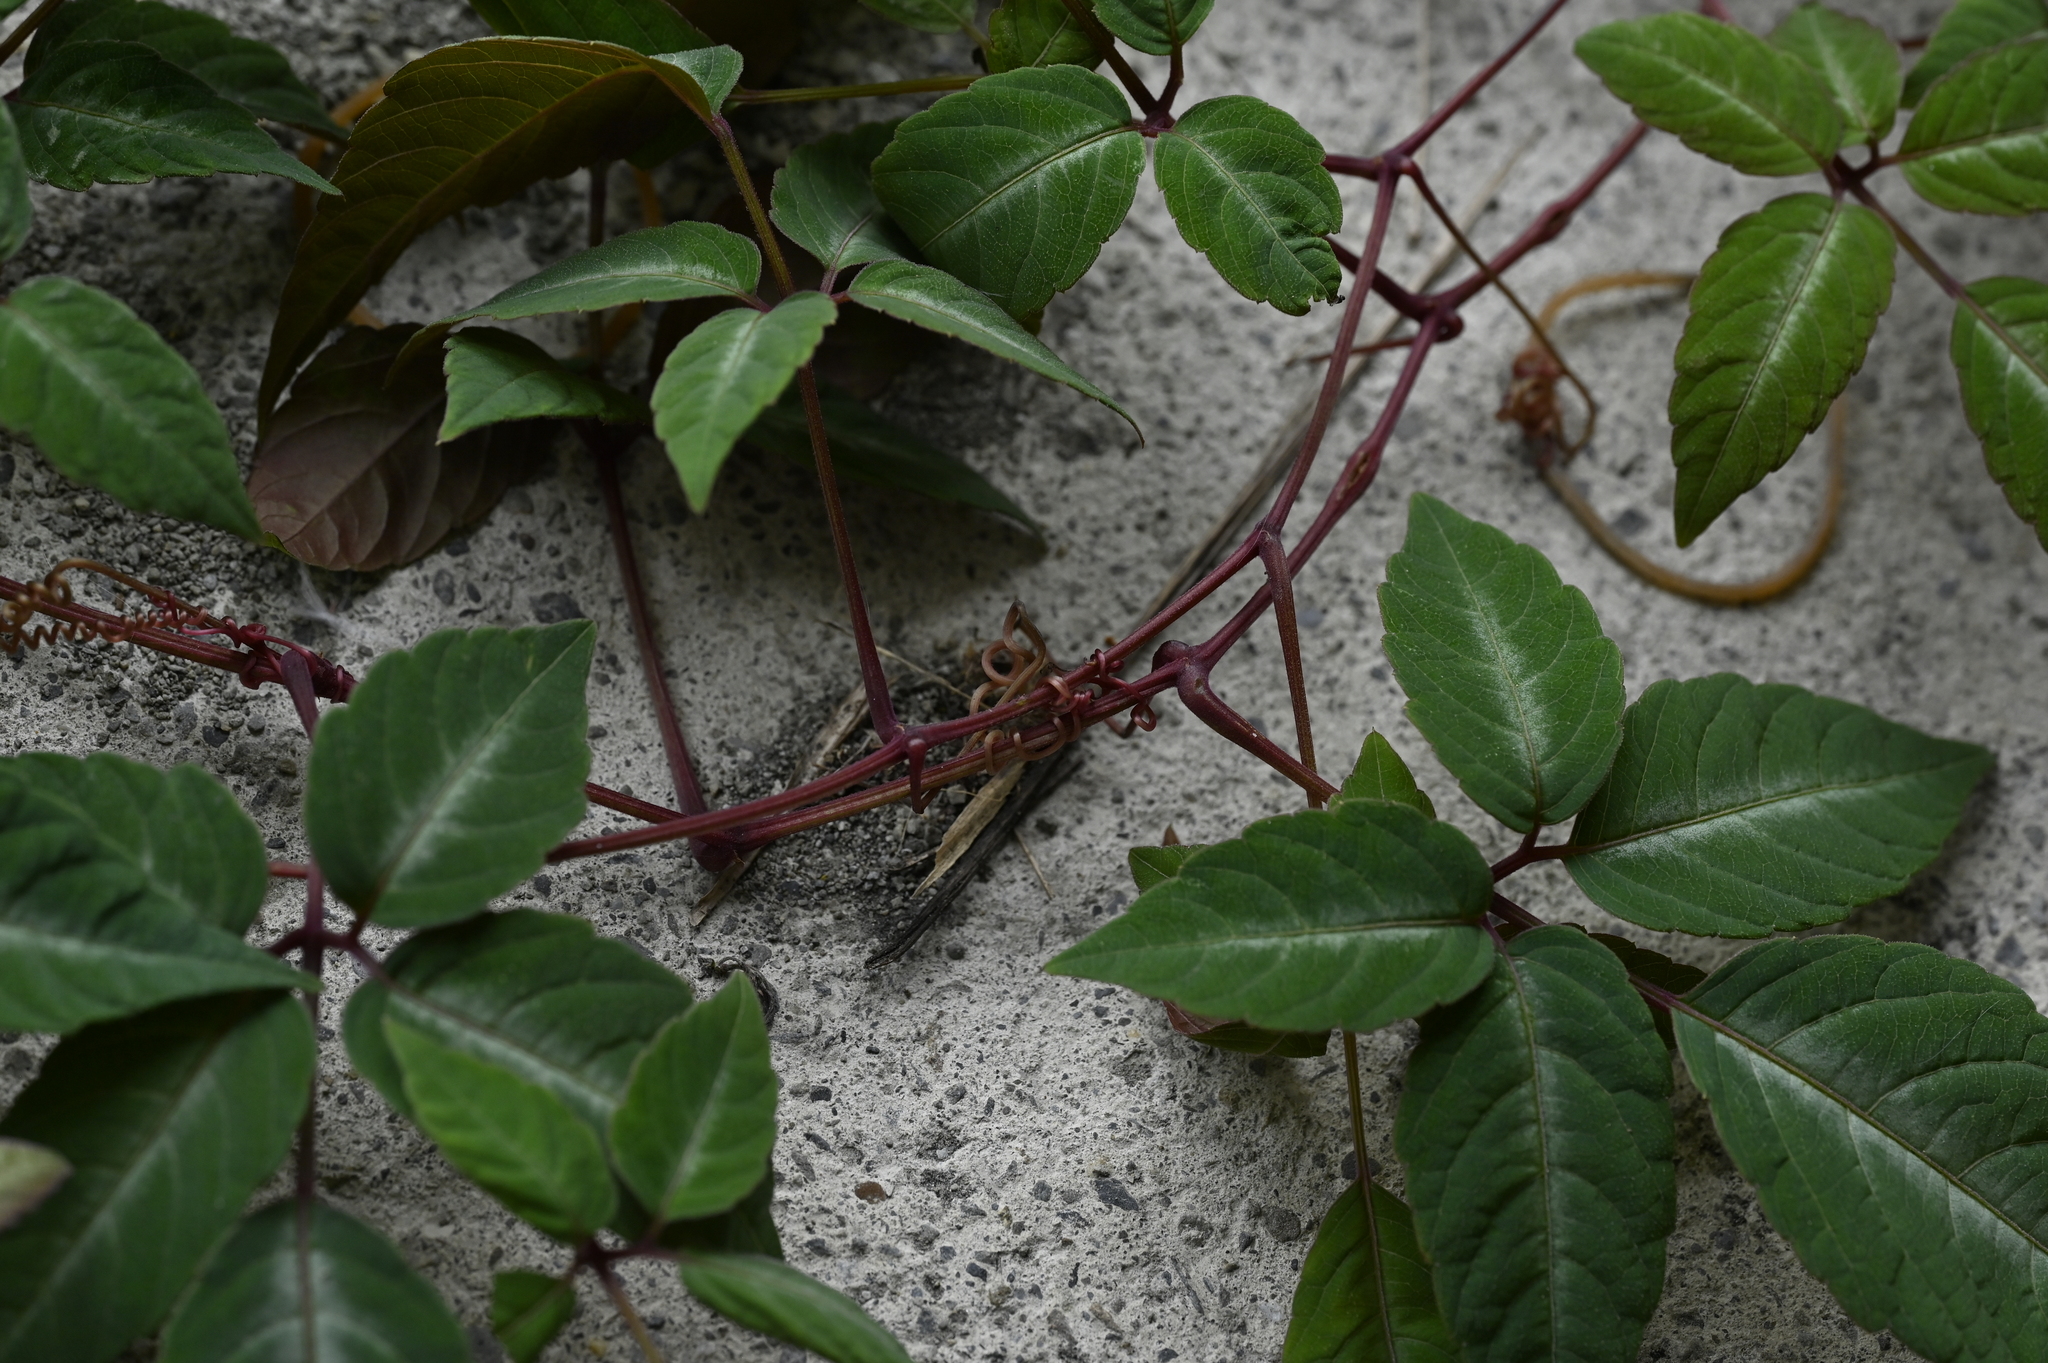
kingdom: Plantae
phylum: Tracheophyta
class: Magnoliopsida
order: Vitales
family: Vitaceae
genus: Pseudocayratia
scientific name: Pseudocayratia pengiana
